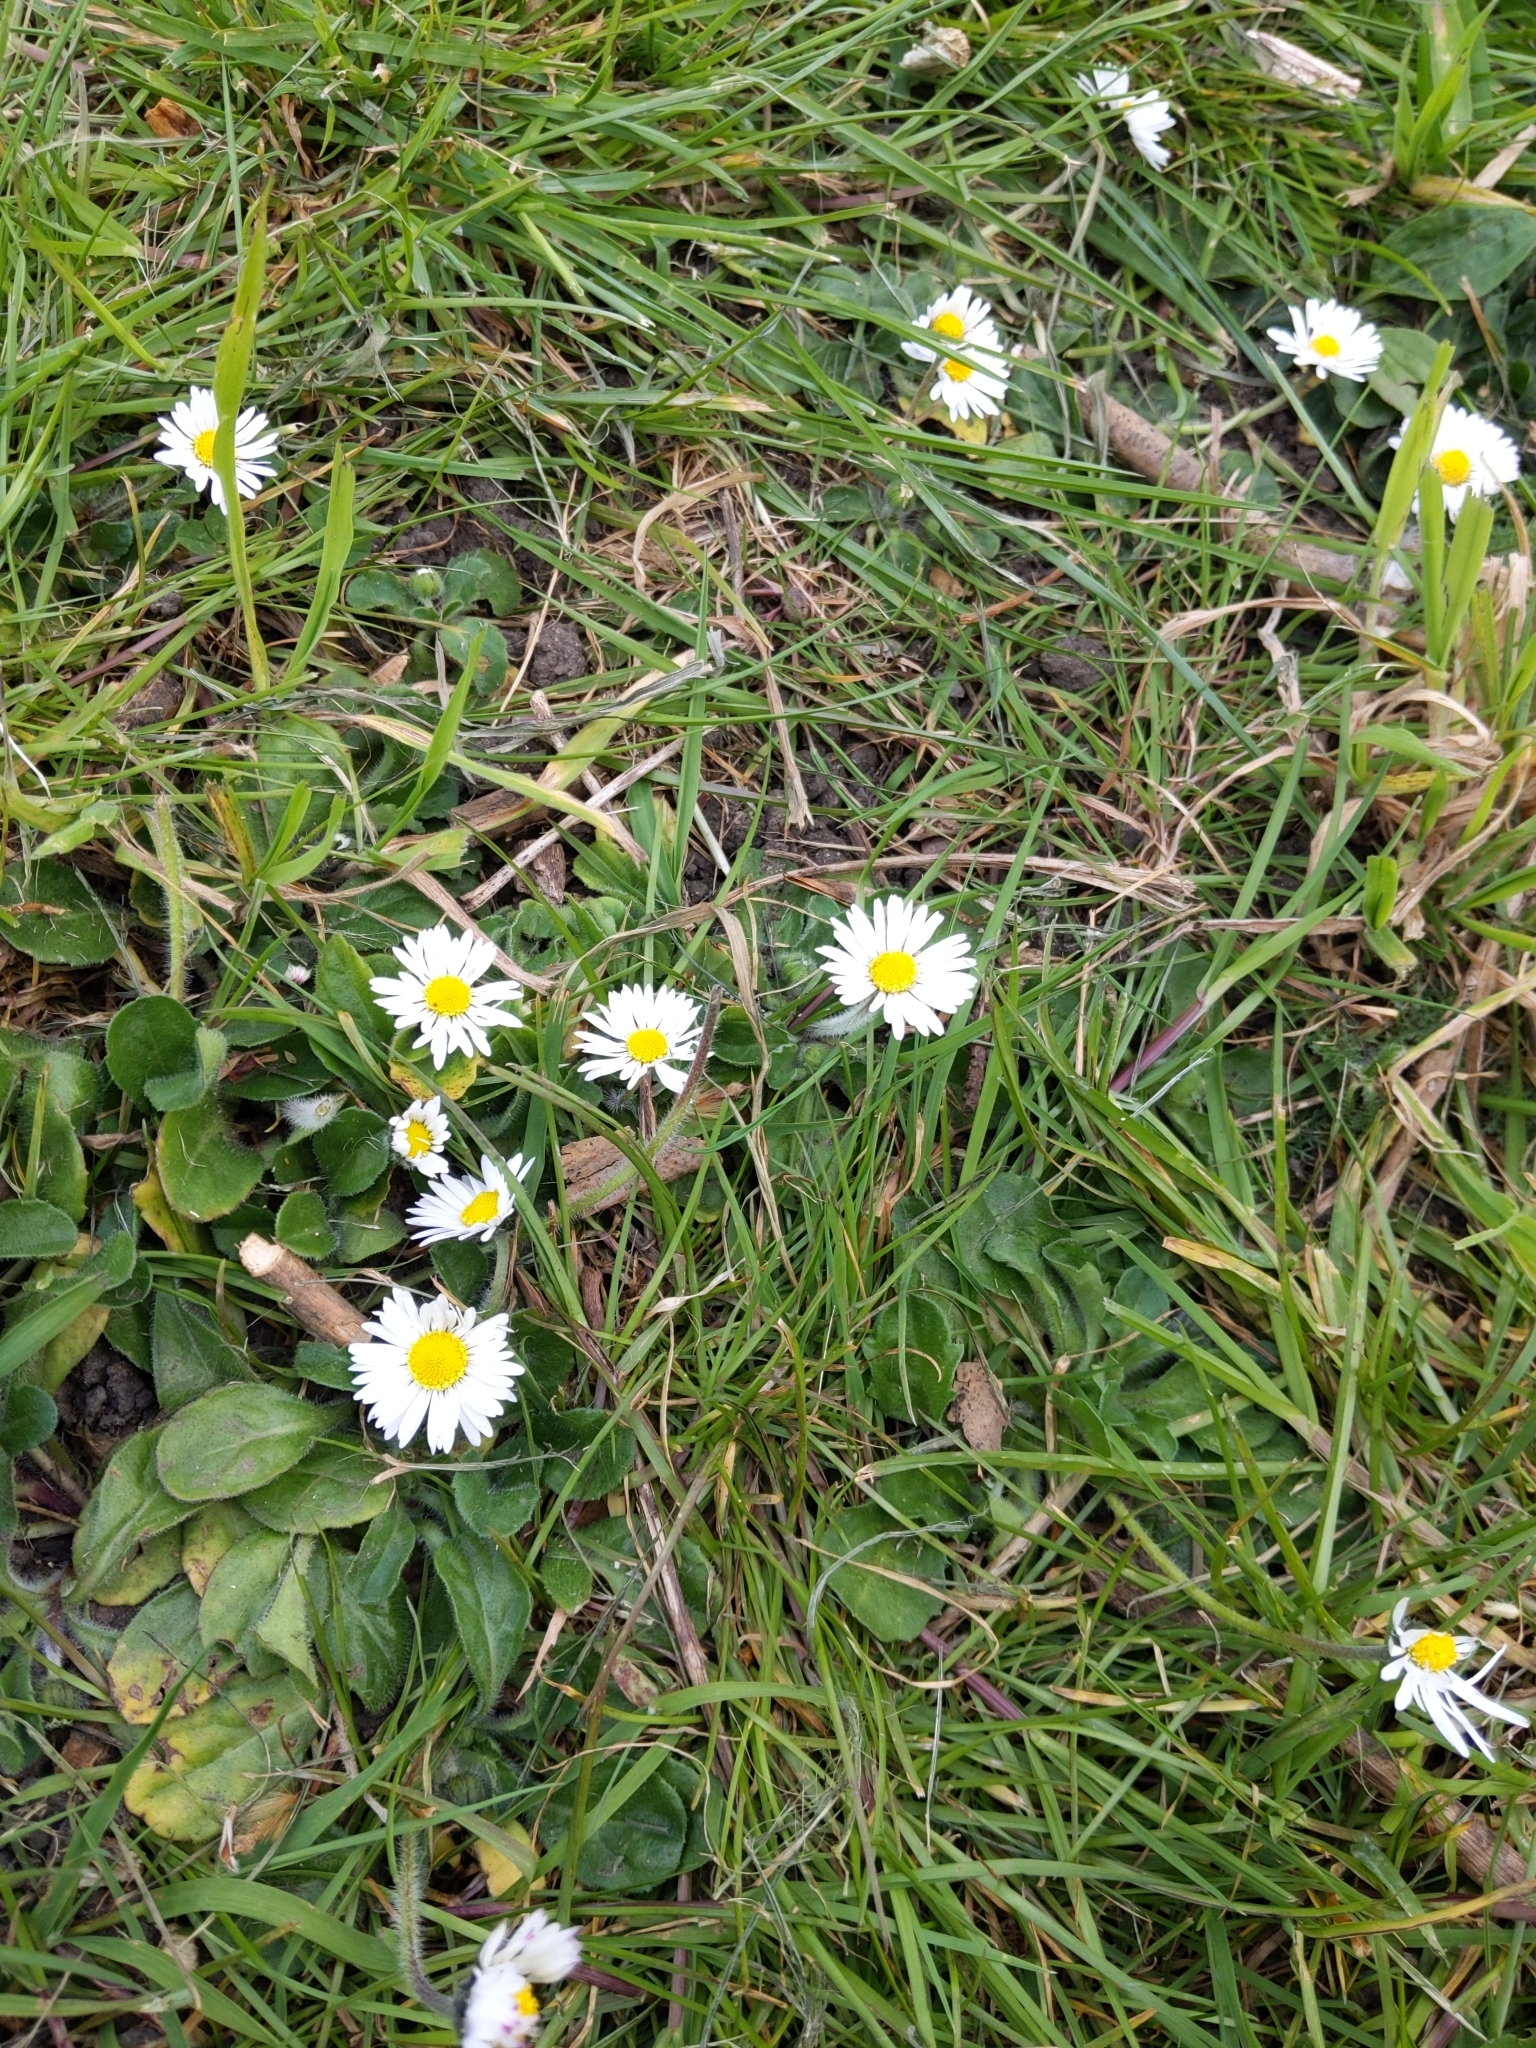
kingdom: Plantae
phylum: Tracheophyta
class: Magnoliopsida
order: Asterales
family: Asteraceae
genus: Bellis
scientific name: Bellis perennis
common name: Lawndaisy
